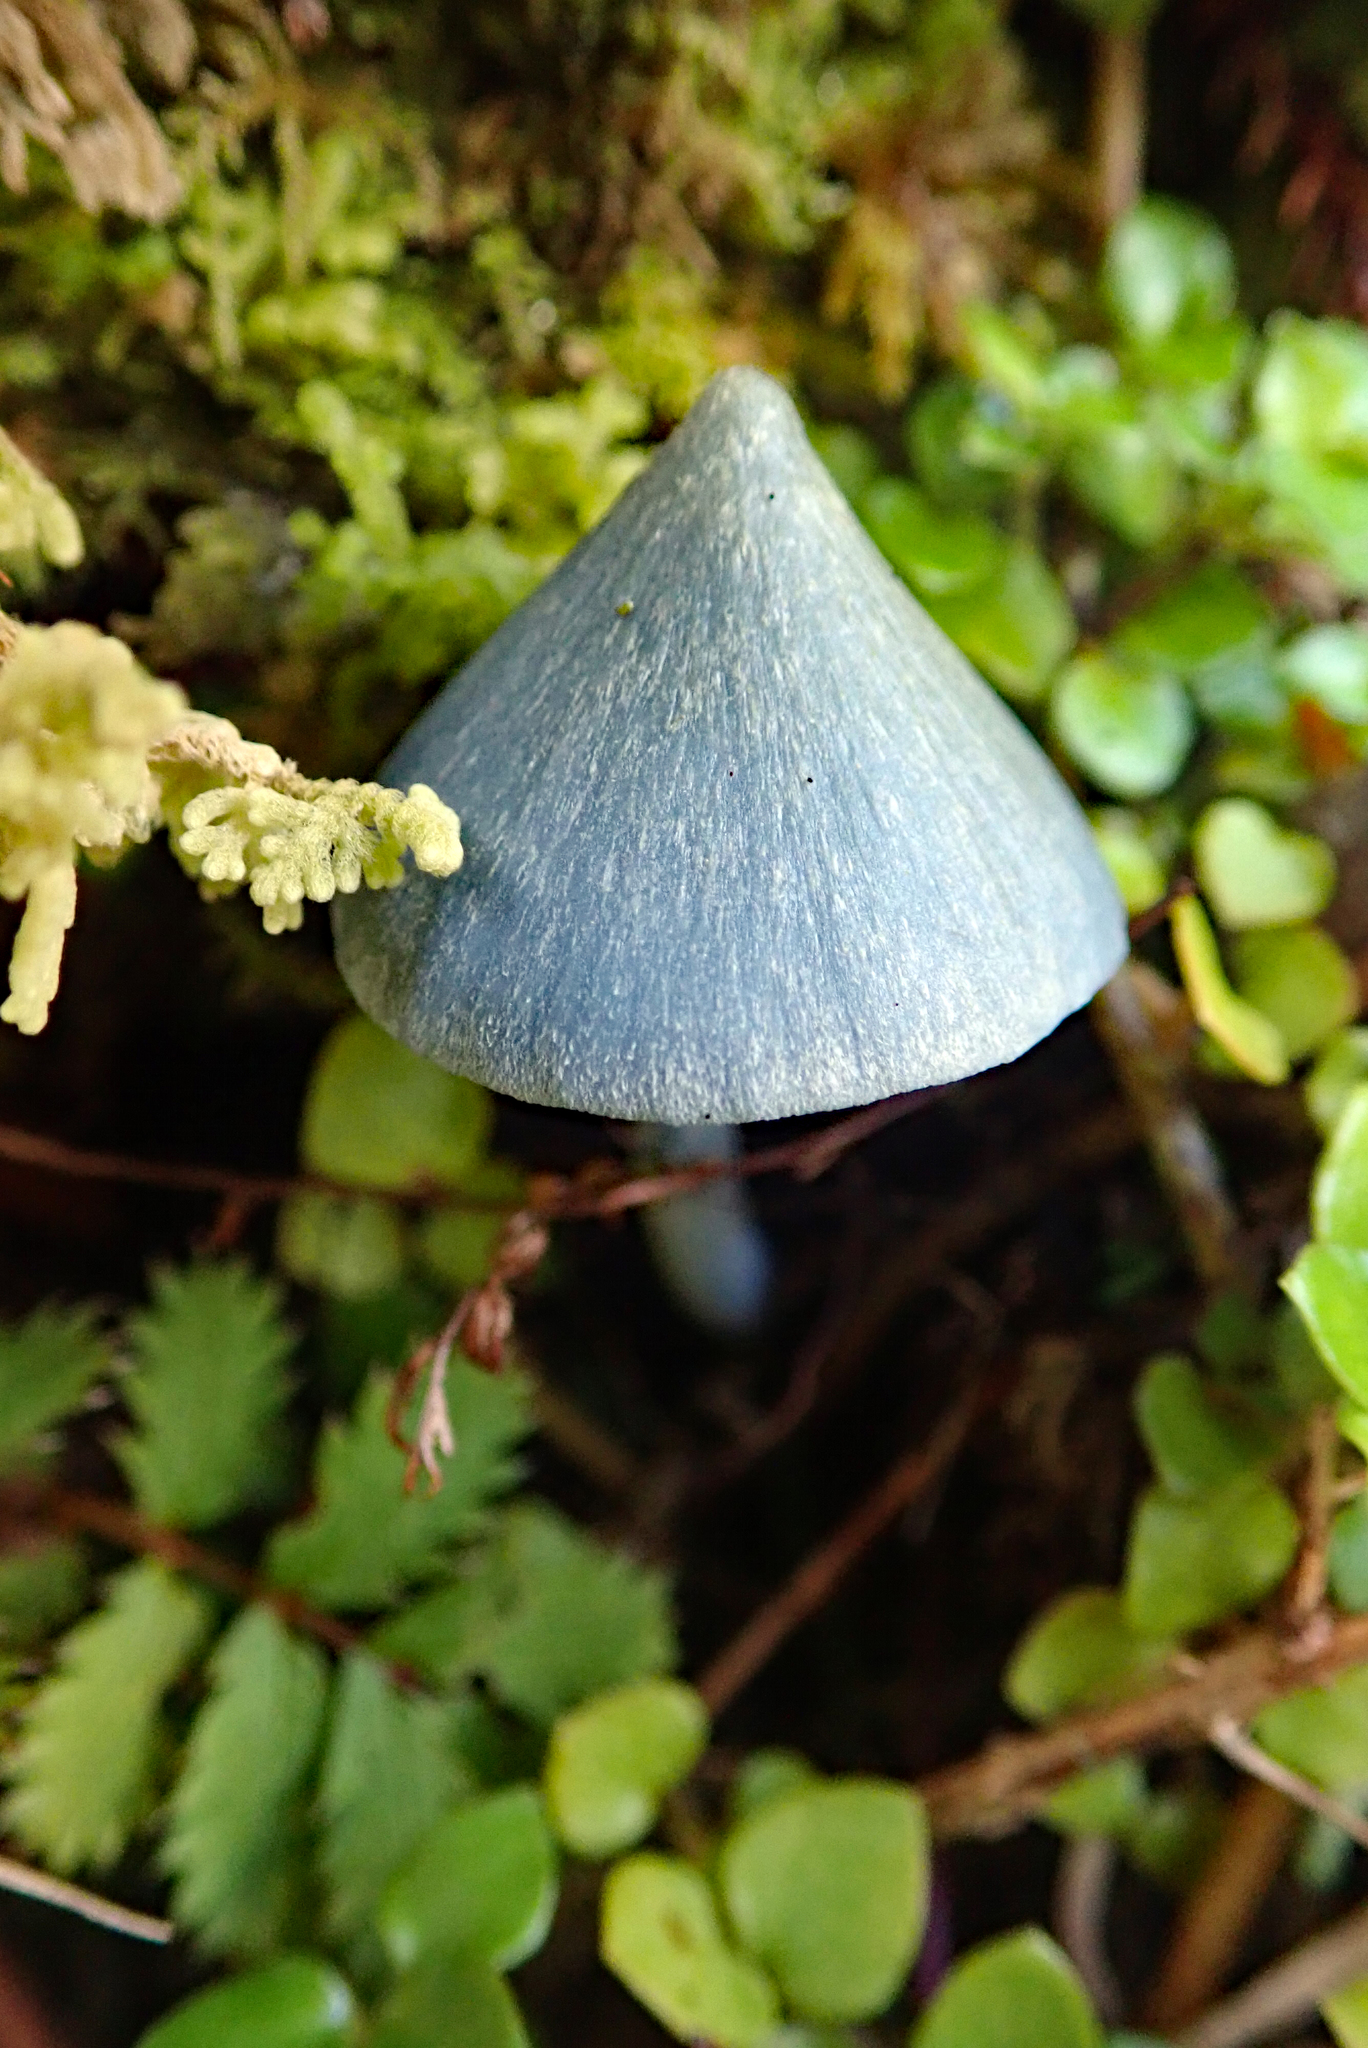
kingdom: Fungi
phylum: Basidiomycota
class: Agaricomycetes
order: Agaricales
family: Entolomataceae
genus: Entoloma
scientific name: Entoloma hochstetteri
